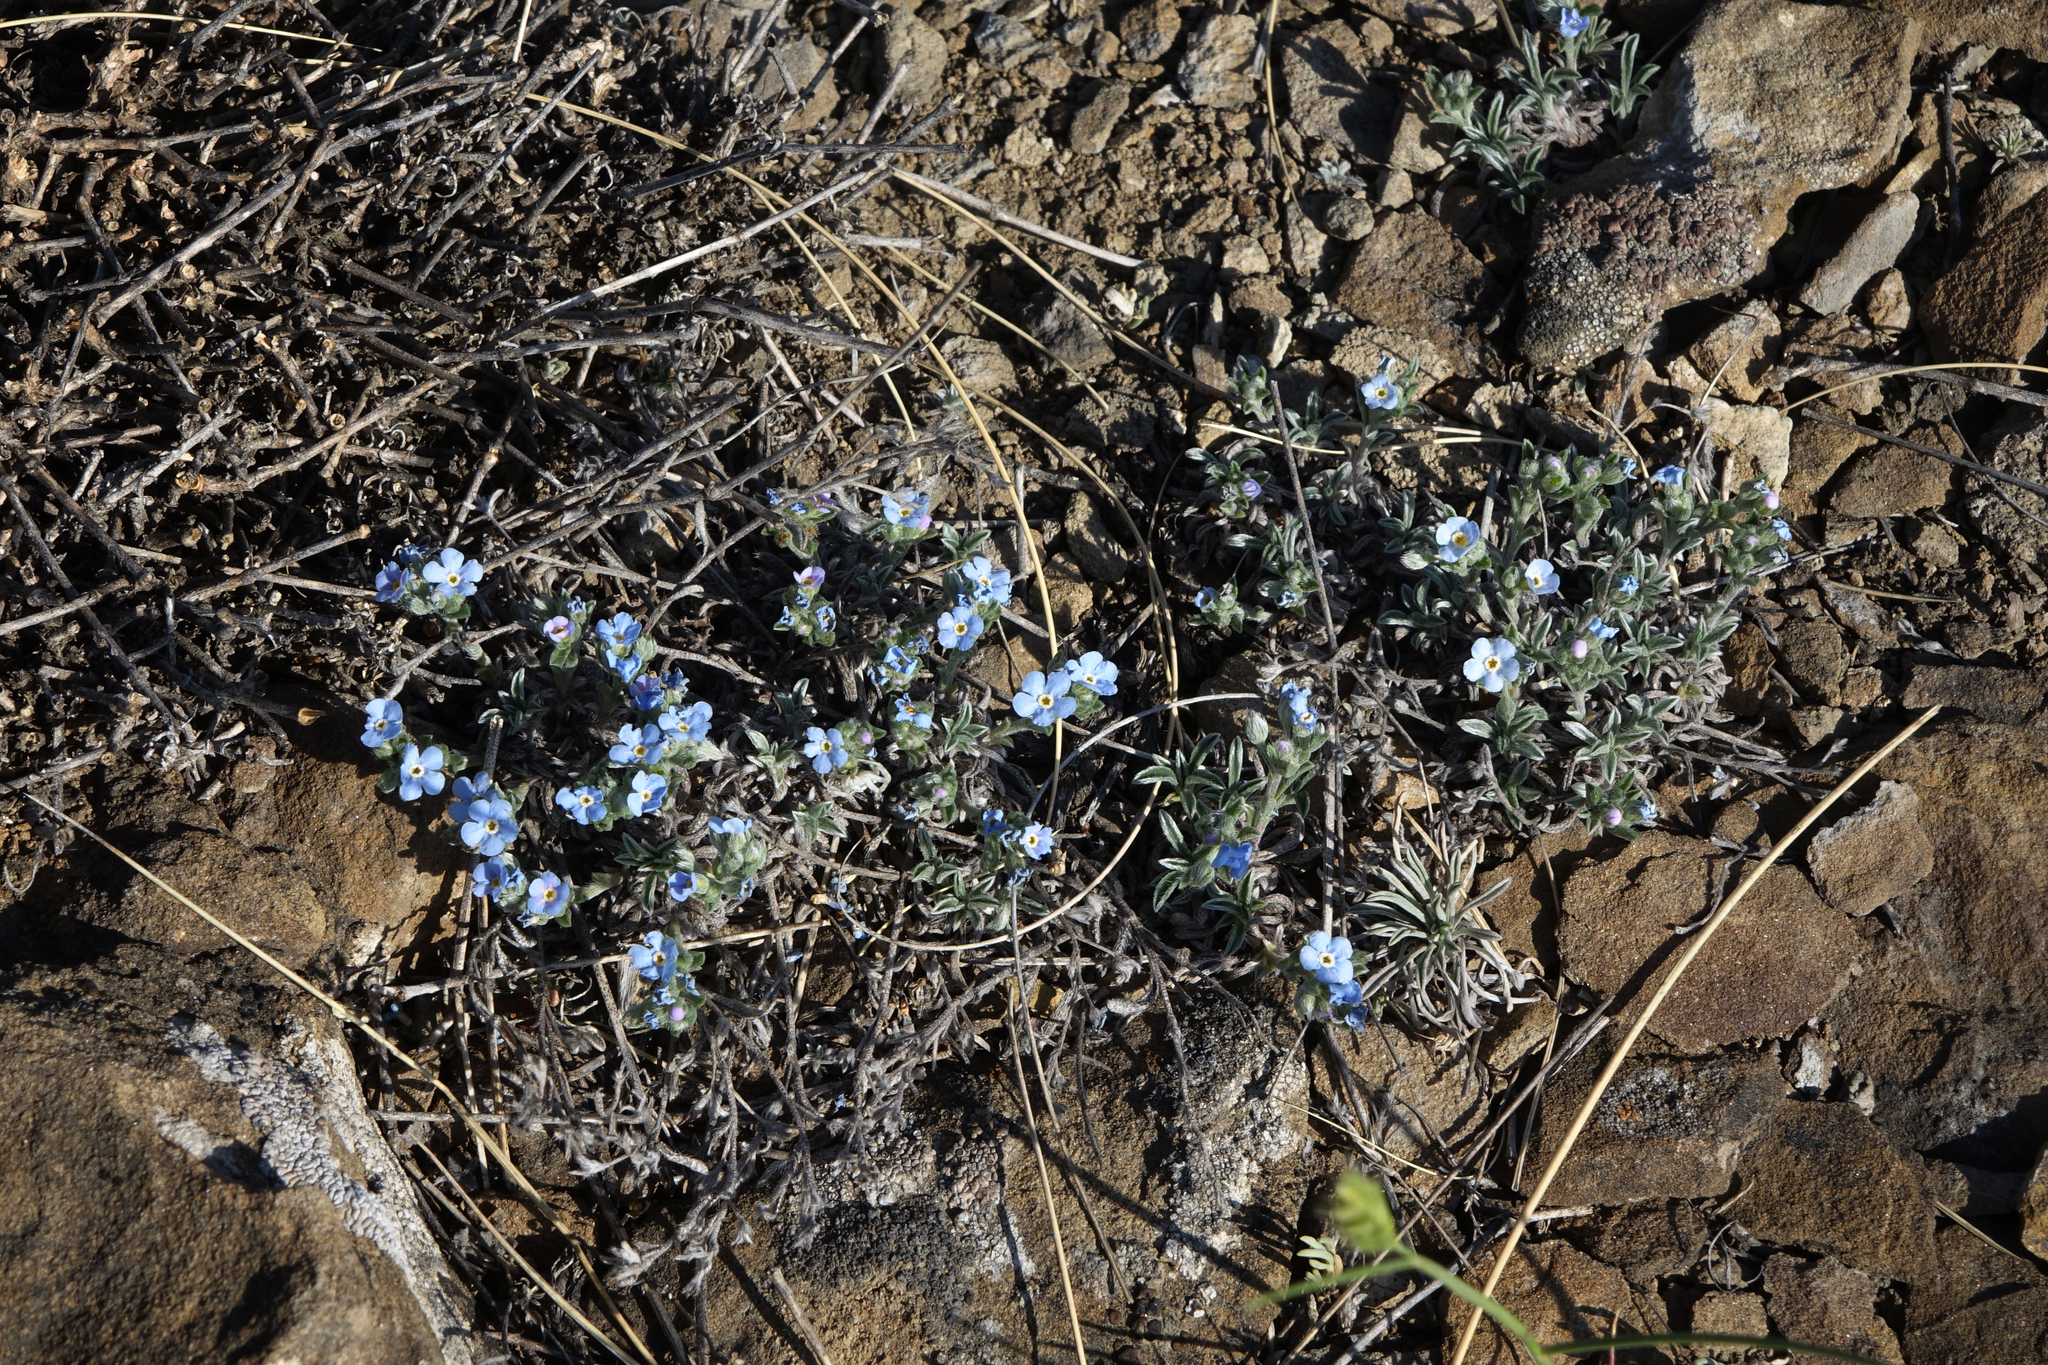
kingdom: Plantae
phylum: Tracheophyta
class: Magnoliopsida
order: Boraginales
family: Boraginaceae
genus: Eritrichium
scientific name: Eritrichium rupestre
